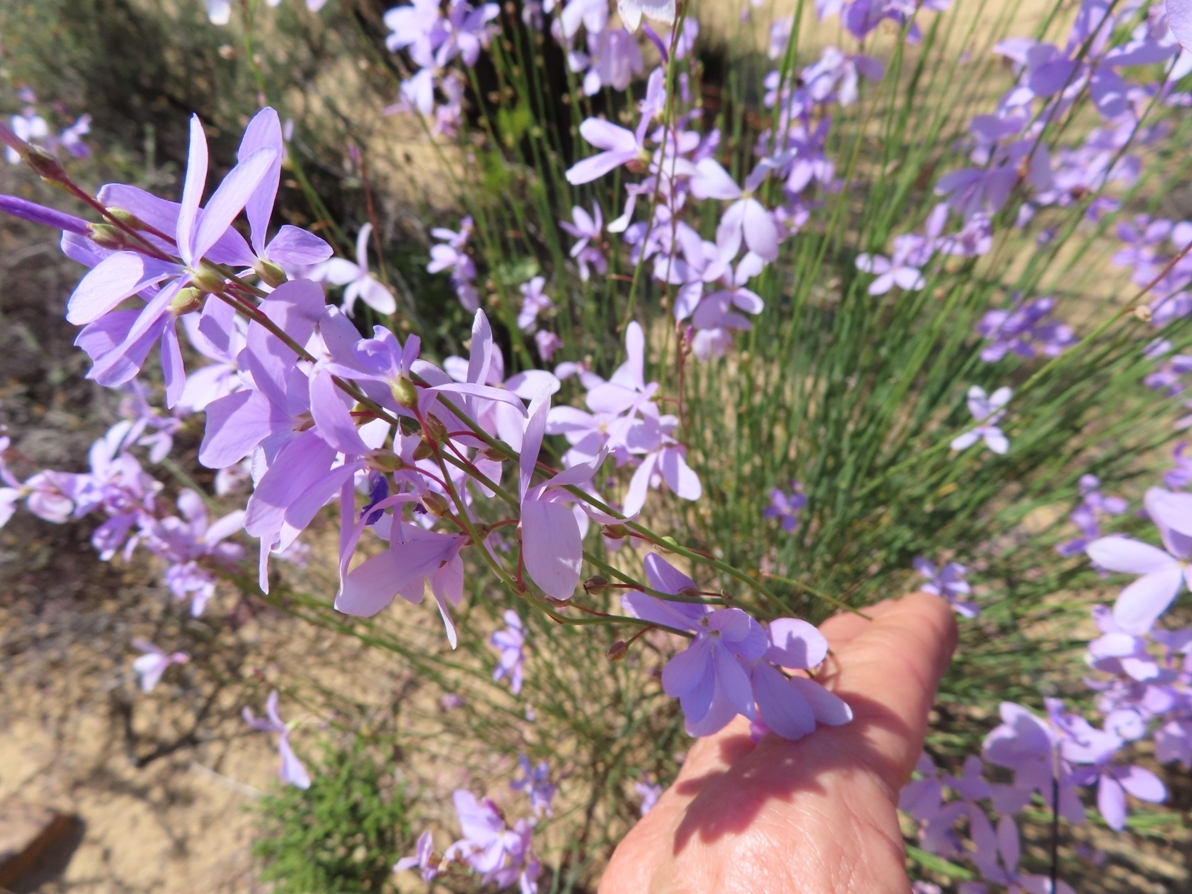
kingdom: Plantae
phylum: Tracheophyta
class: Magnoliopsida
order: Brassicales
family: Brassicaceae
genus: Heliophila
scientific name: Heliophila juncea
